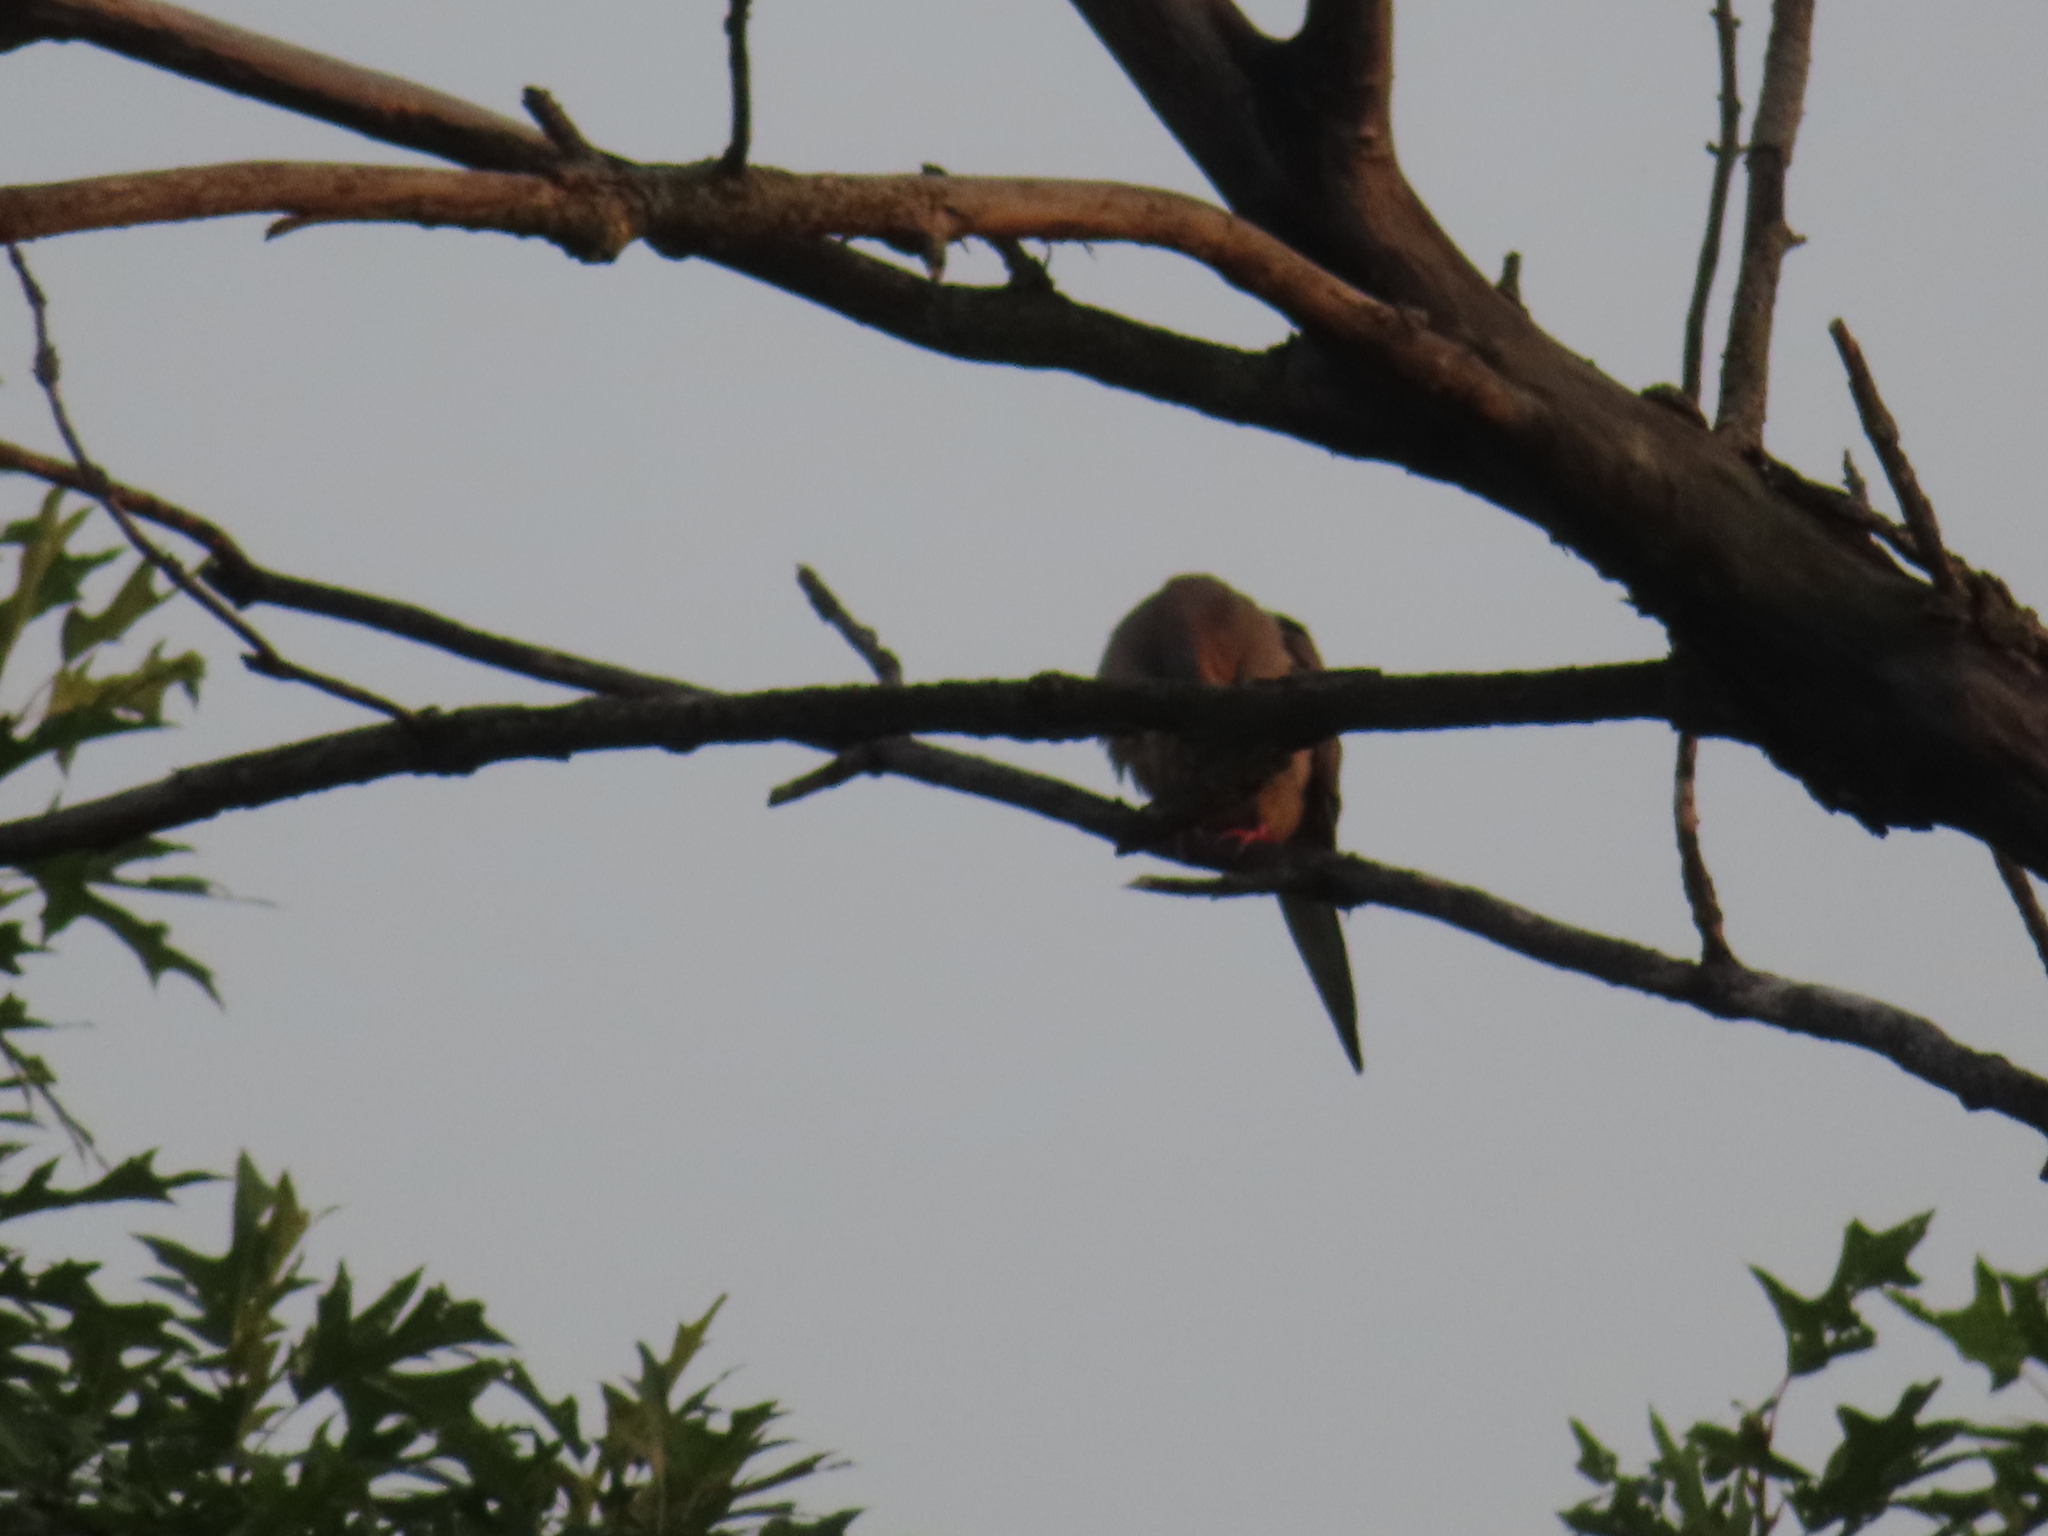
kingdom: Animalia
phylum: Chordata
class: Aves
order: Columbiformes
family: Columbidae
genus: Zenaida
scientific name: Zenaida macroura
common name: Mourning dove
